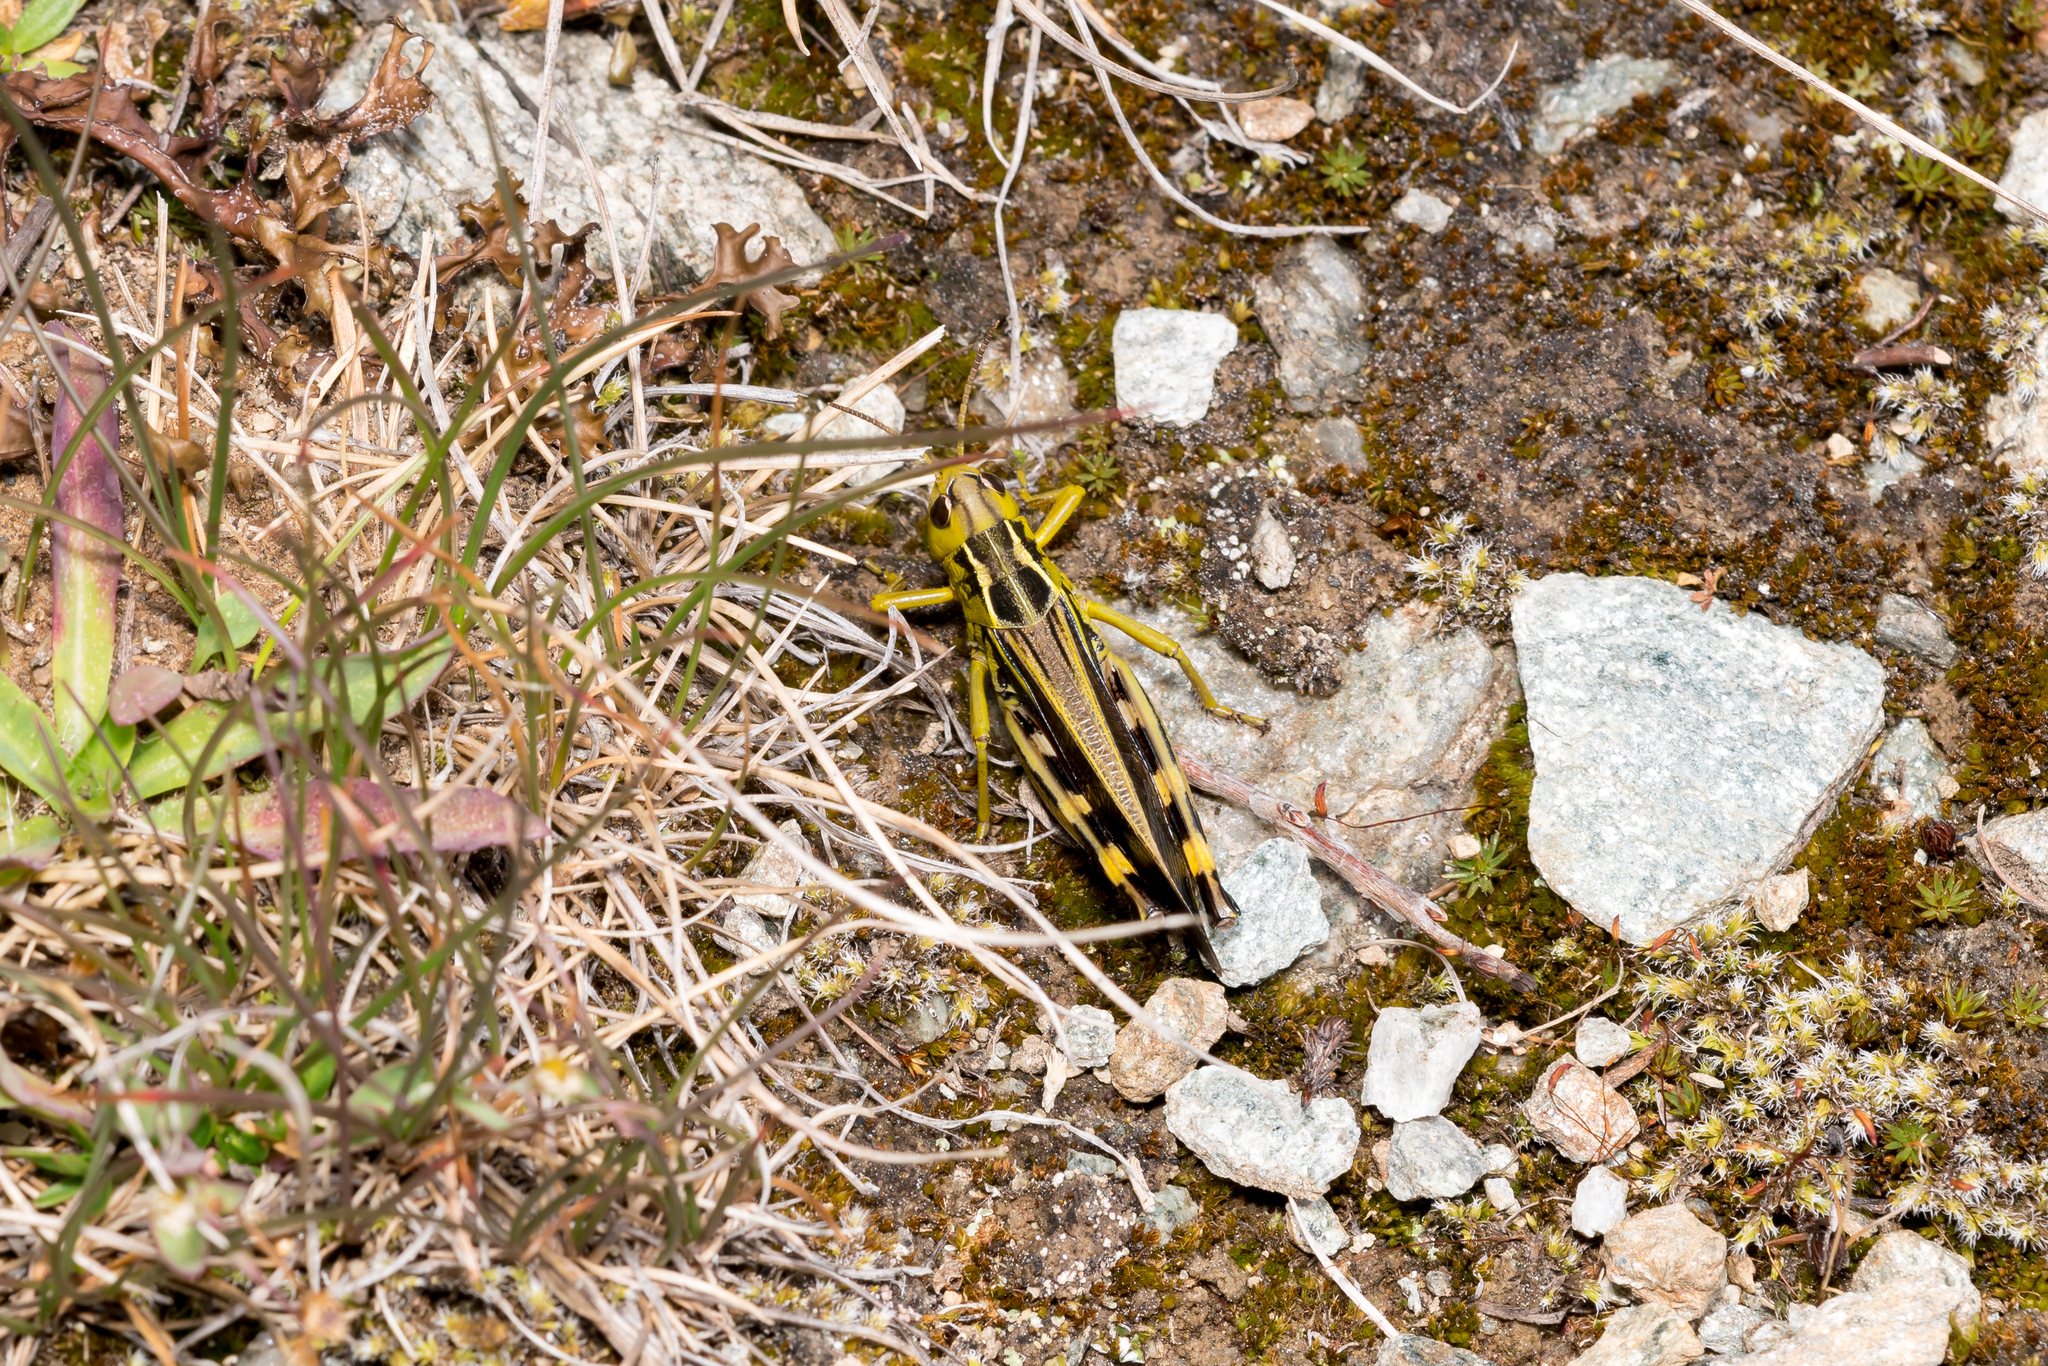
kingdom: Animalia
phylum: Arthropoda
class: Insecta
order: Orthoptera
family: Acrididae
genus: Arcyptera
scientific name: Arcyptera fusca
